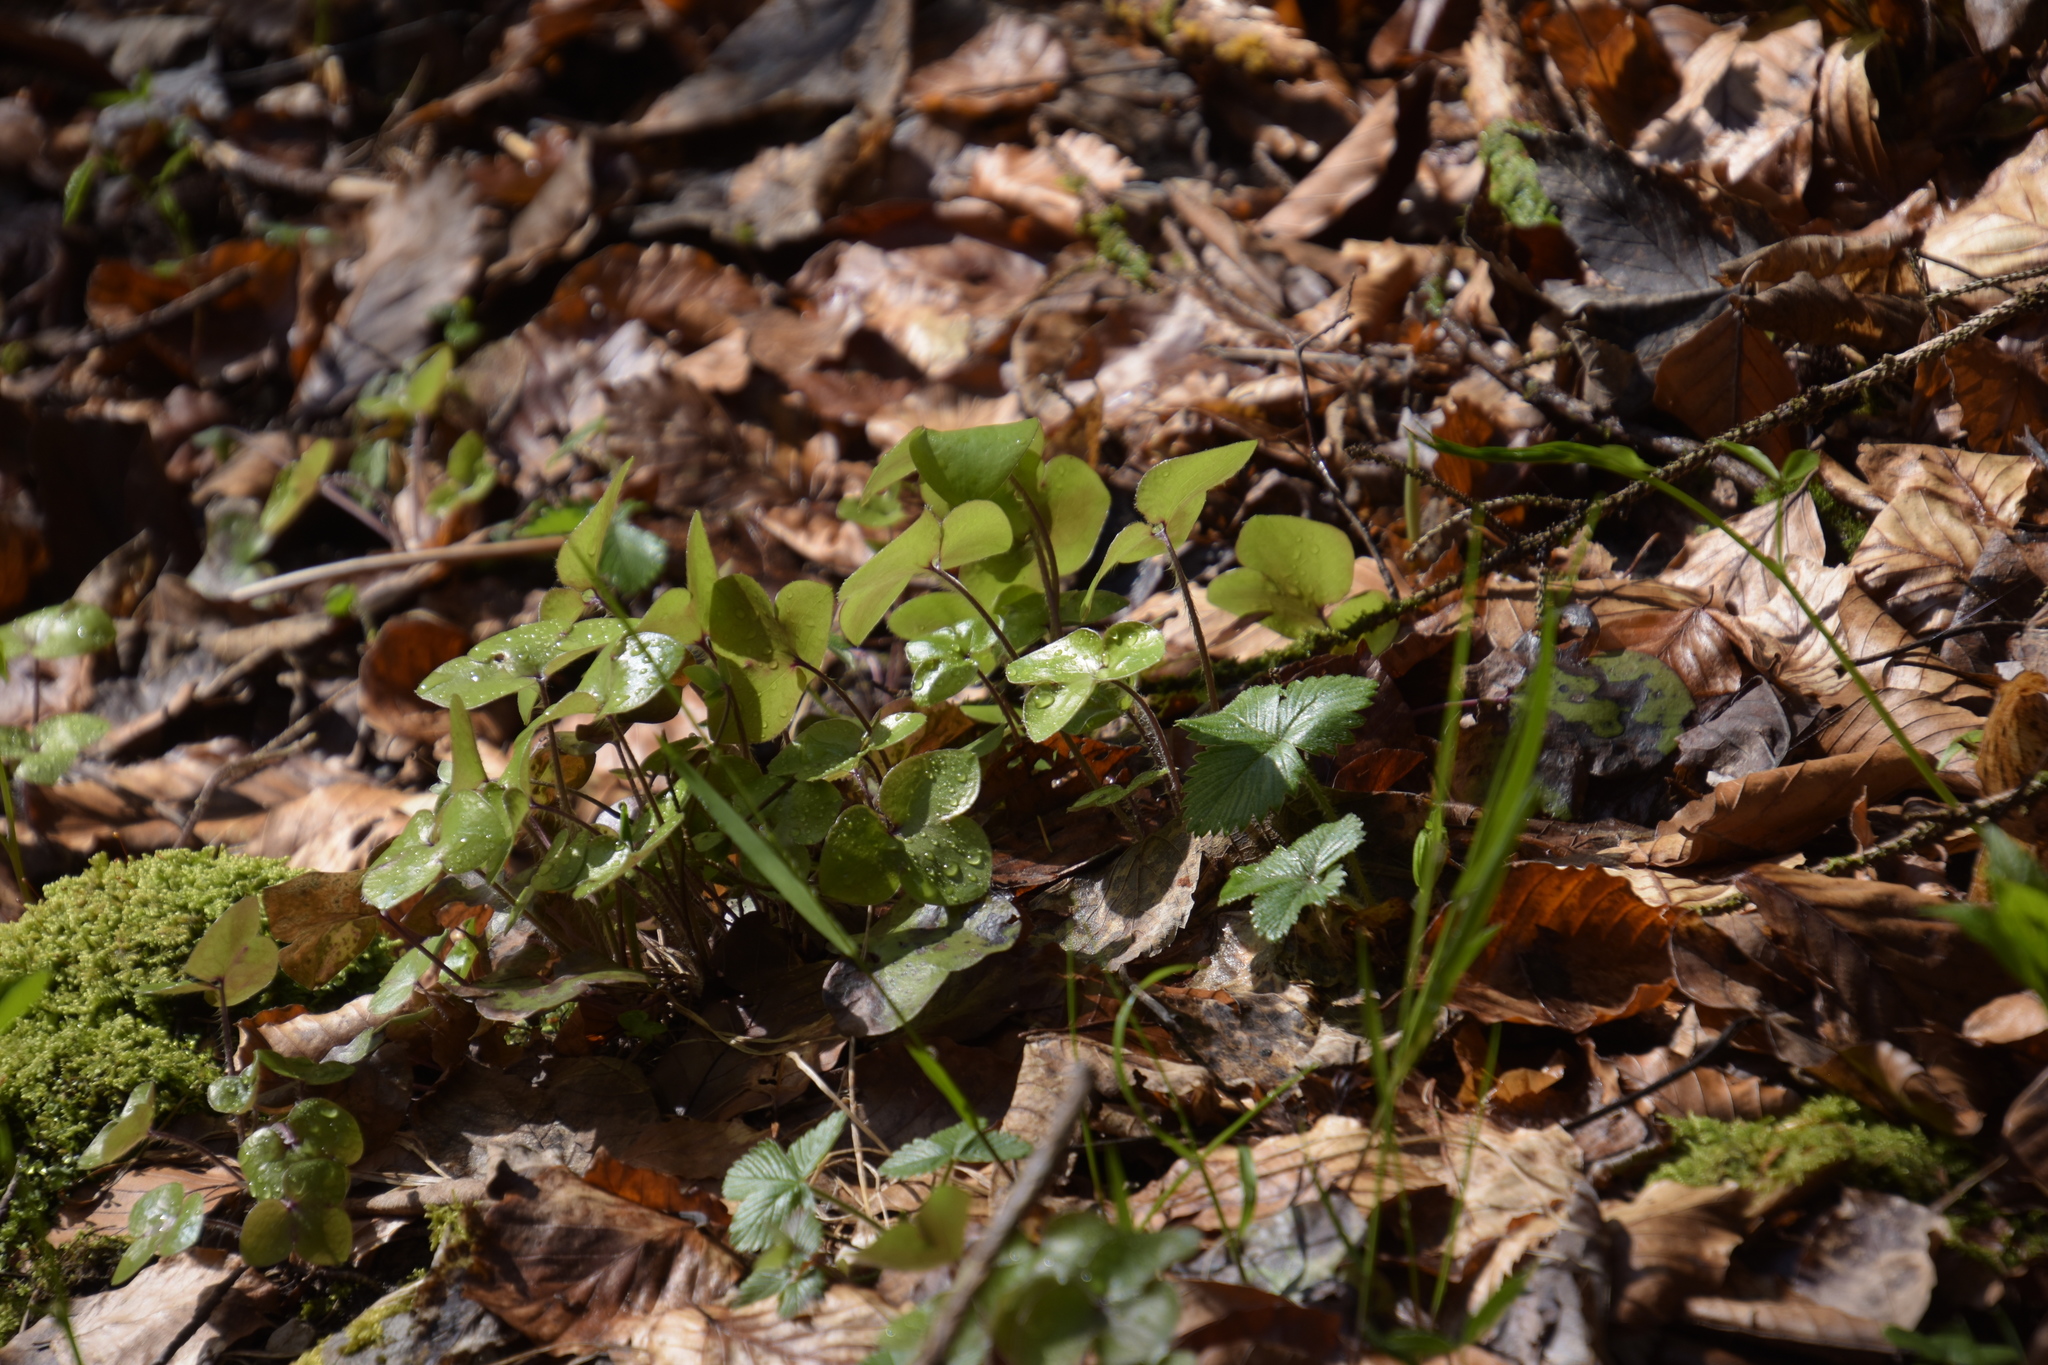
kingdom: Plantae
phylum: Tracheophyta
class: Magnoliopsida
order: Ranunculales
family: Ranunculaceae
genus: Hepatica
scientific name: Hepatica nobilis
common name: Liverleaf
